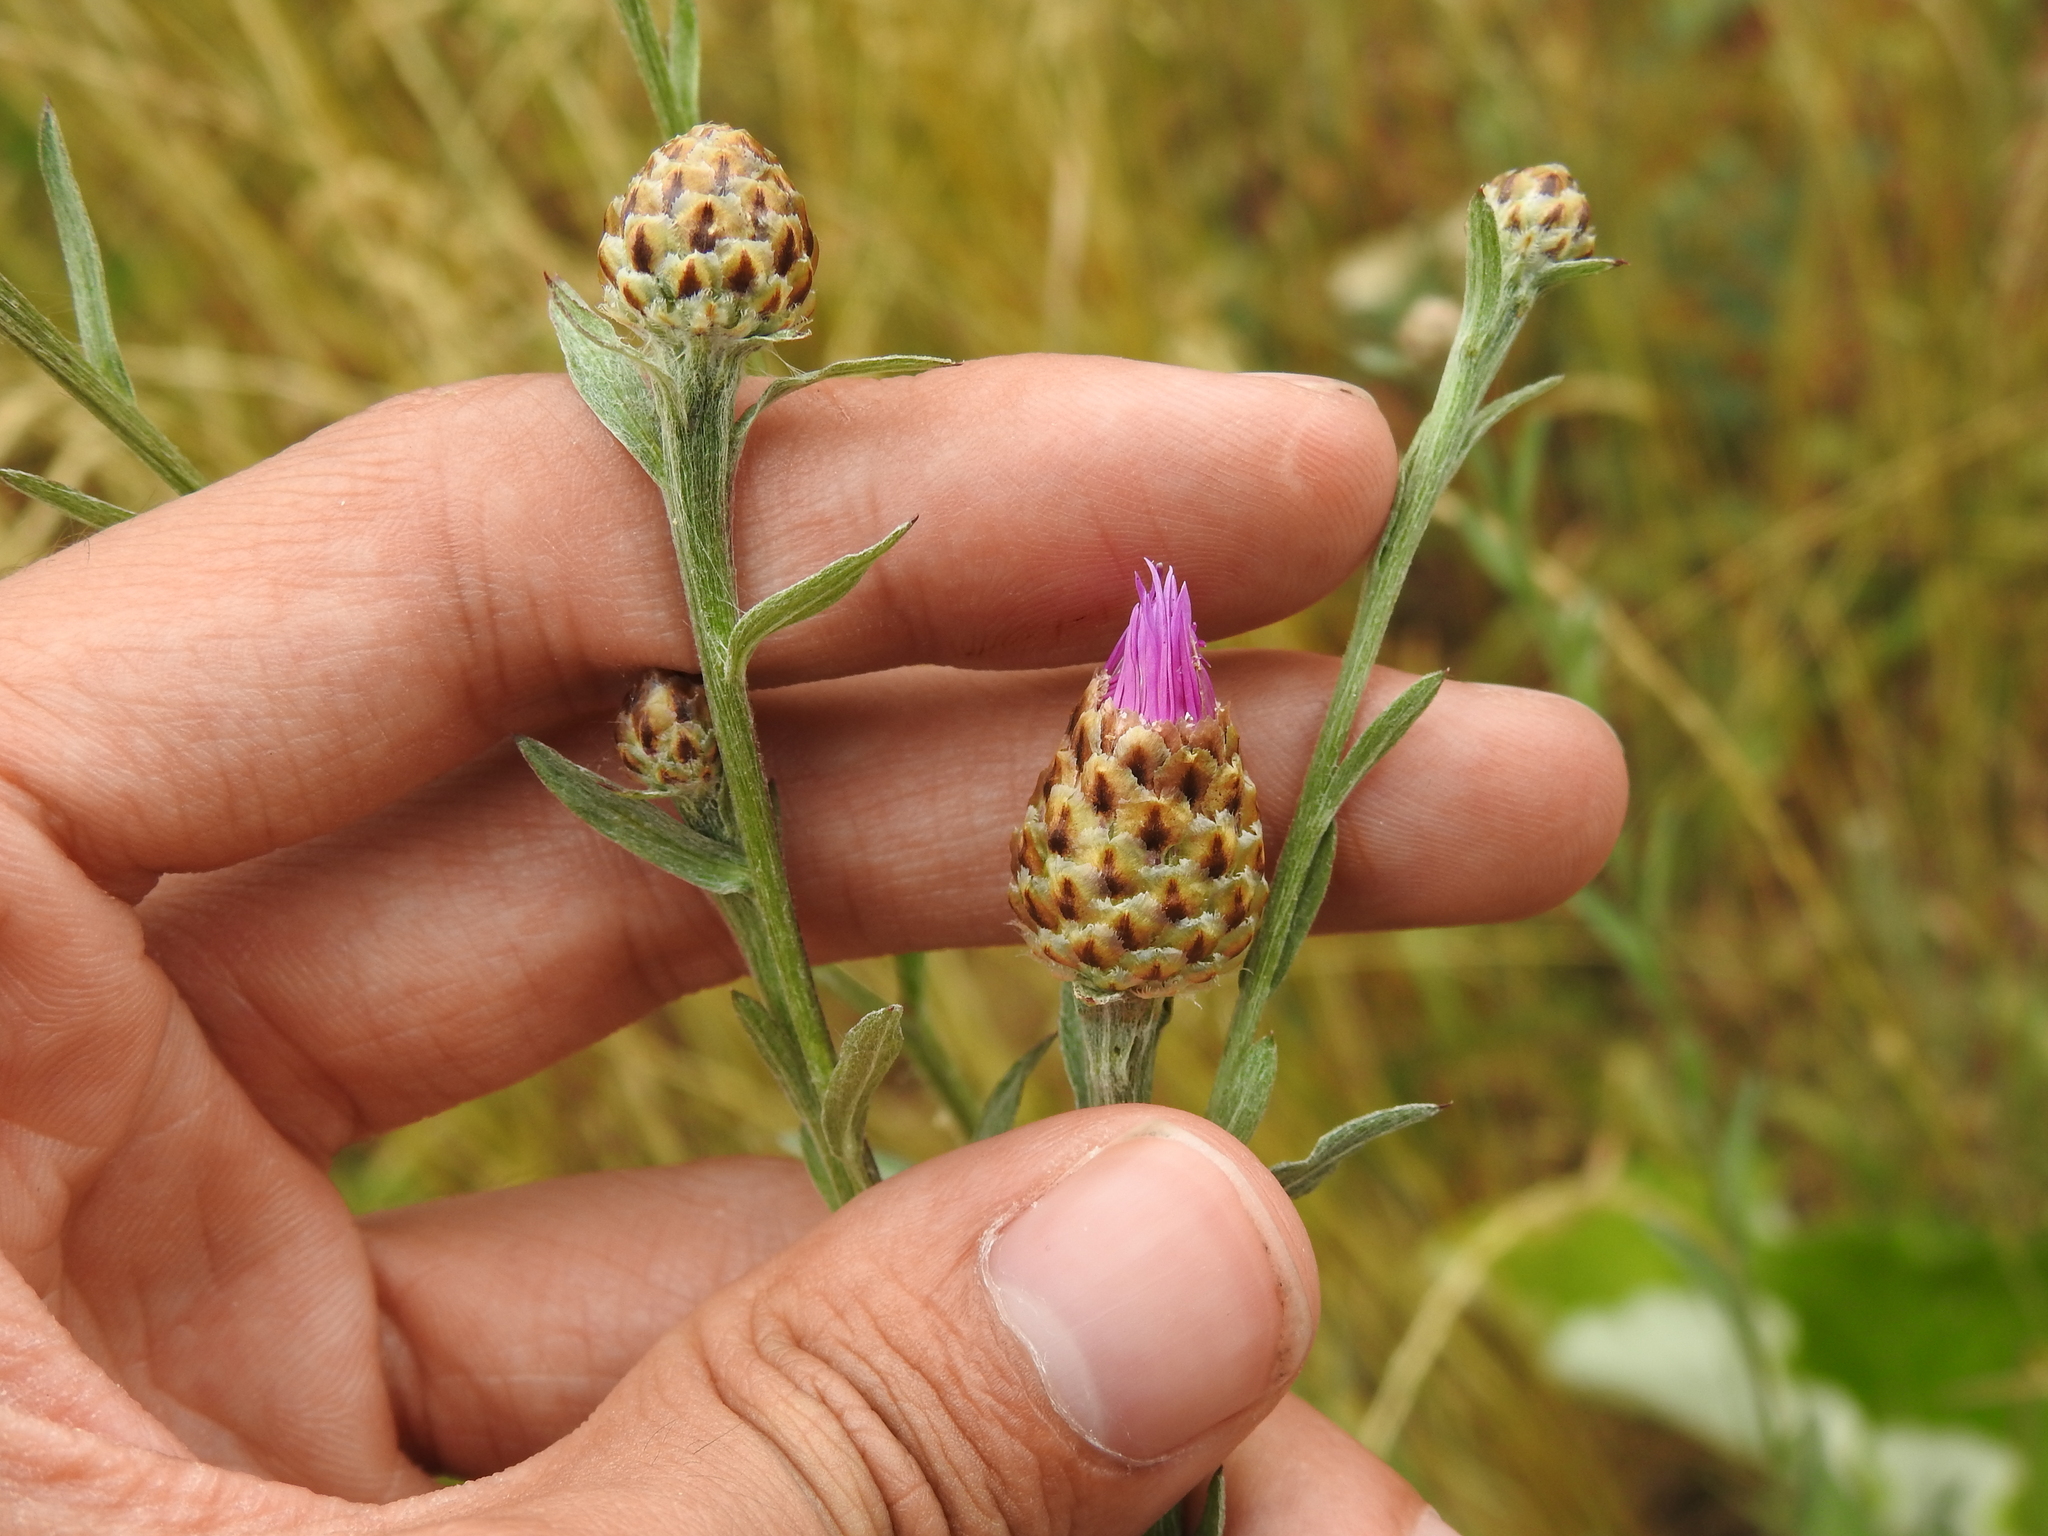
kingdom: Plantae
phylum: Tracheophyta
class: Magnoliopsida
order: Asterales
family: Asteraceae
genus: Centaurea
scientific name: Centaurea jacea
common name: Brown knapweed
